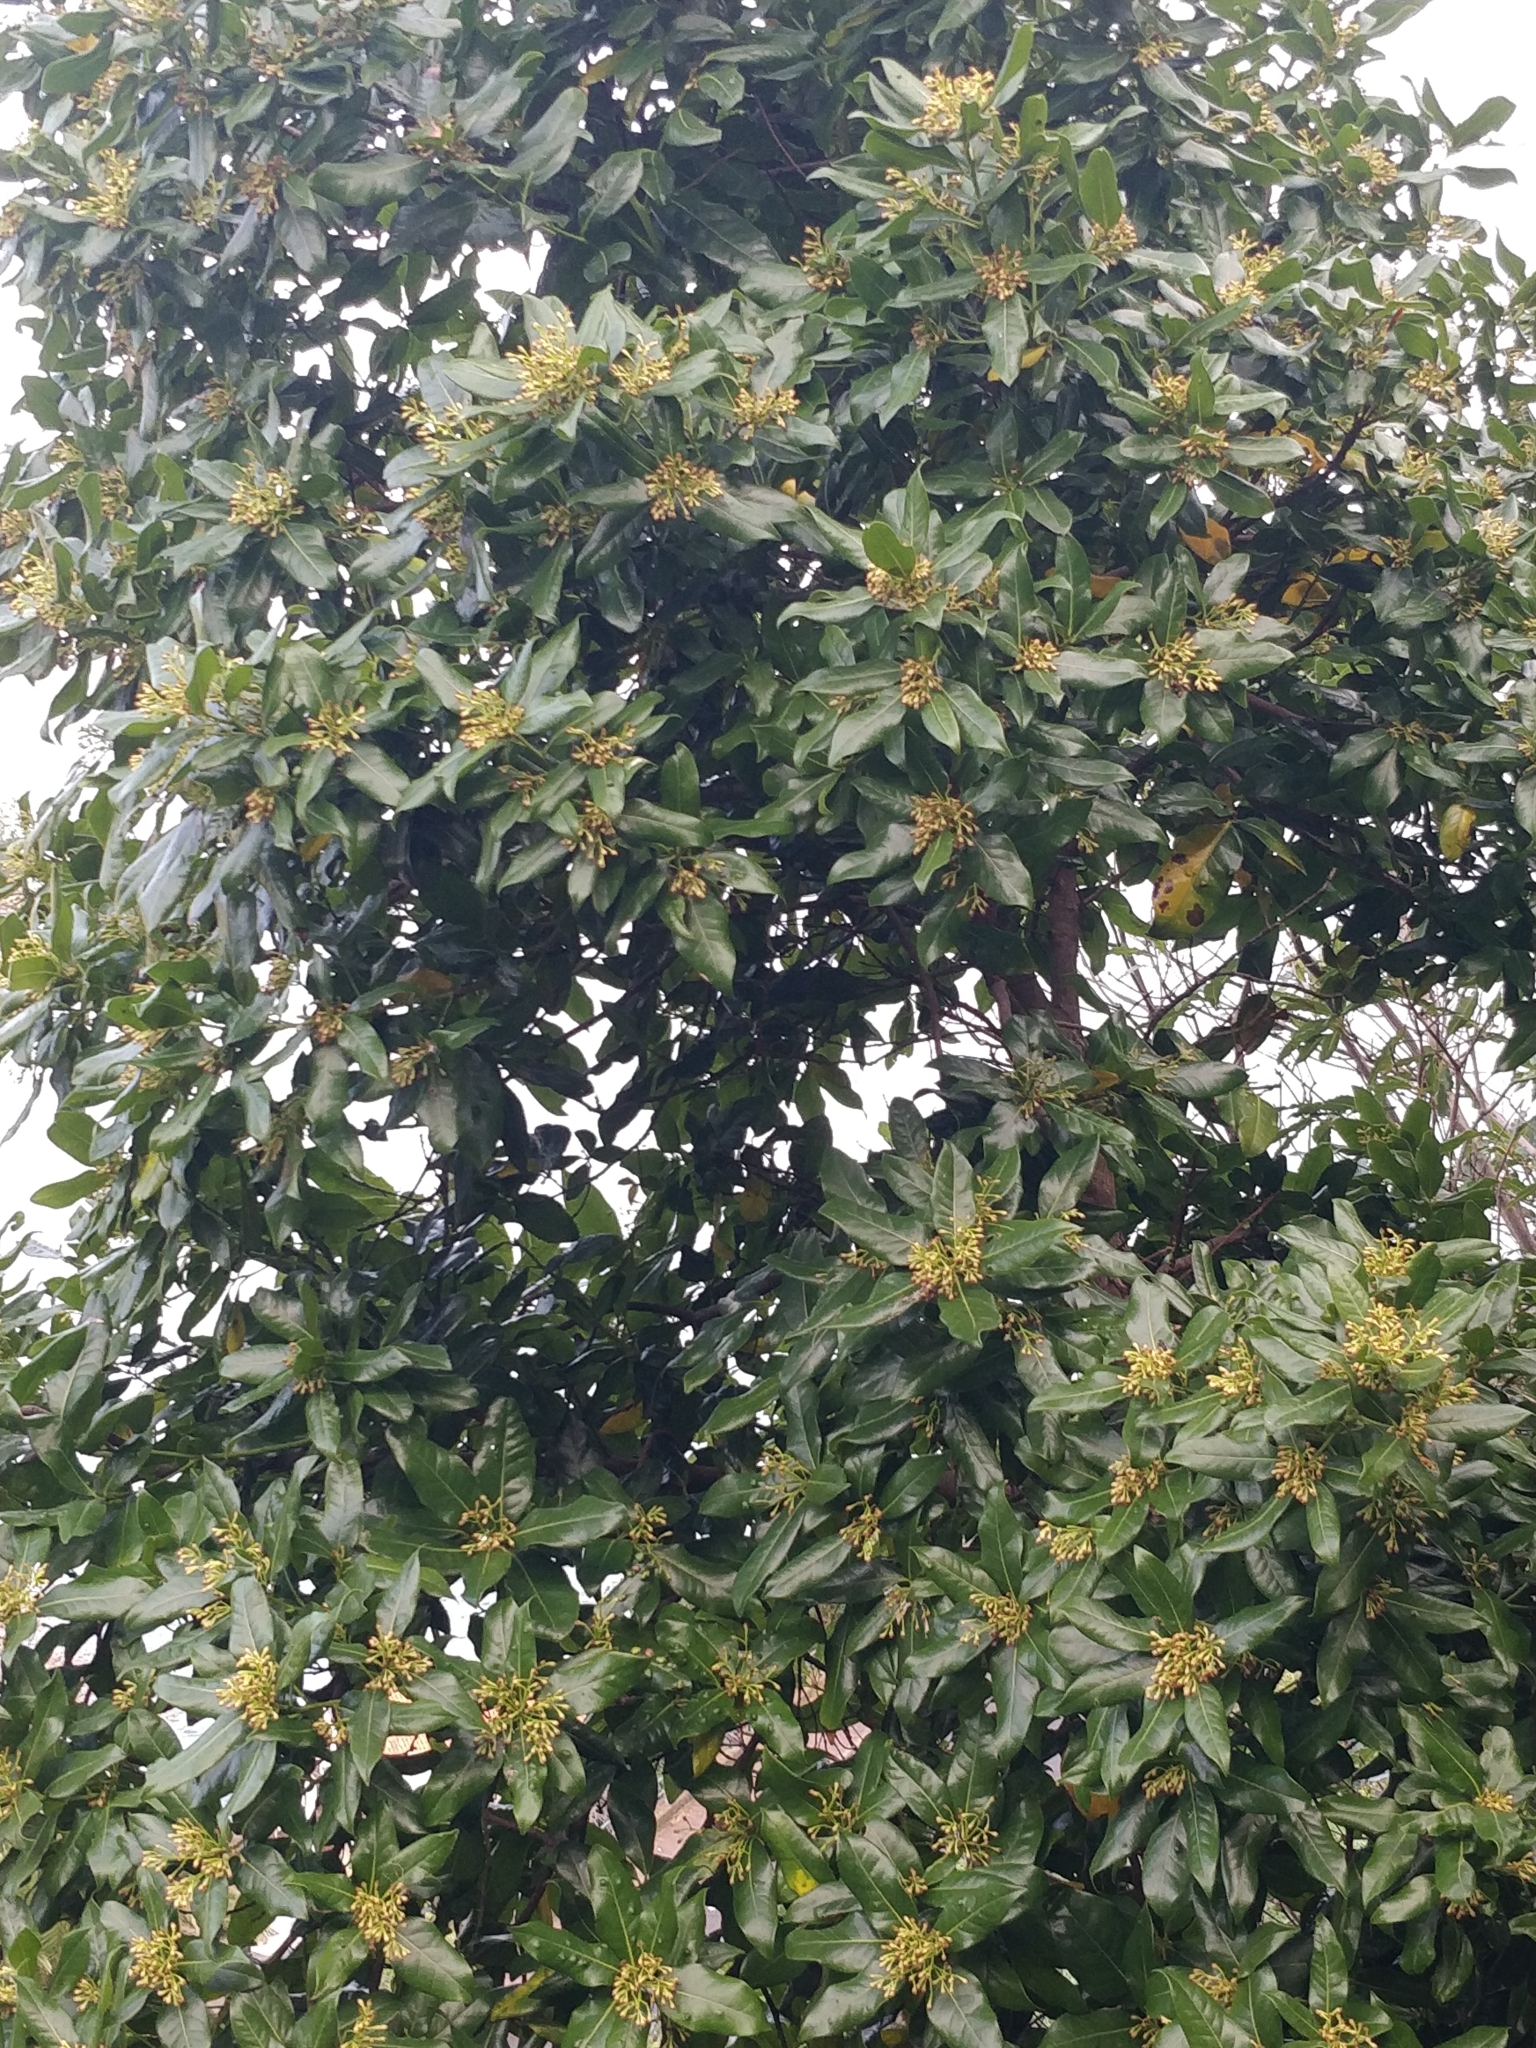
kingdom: Plantae
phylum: Tracheophyta
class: Magnoliopsida
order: Laurales
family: Lauraceae
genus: Apollonias
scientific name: Apollonias barbujana
